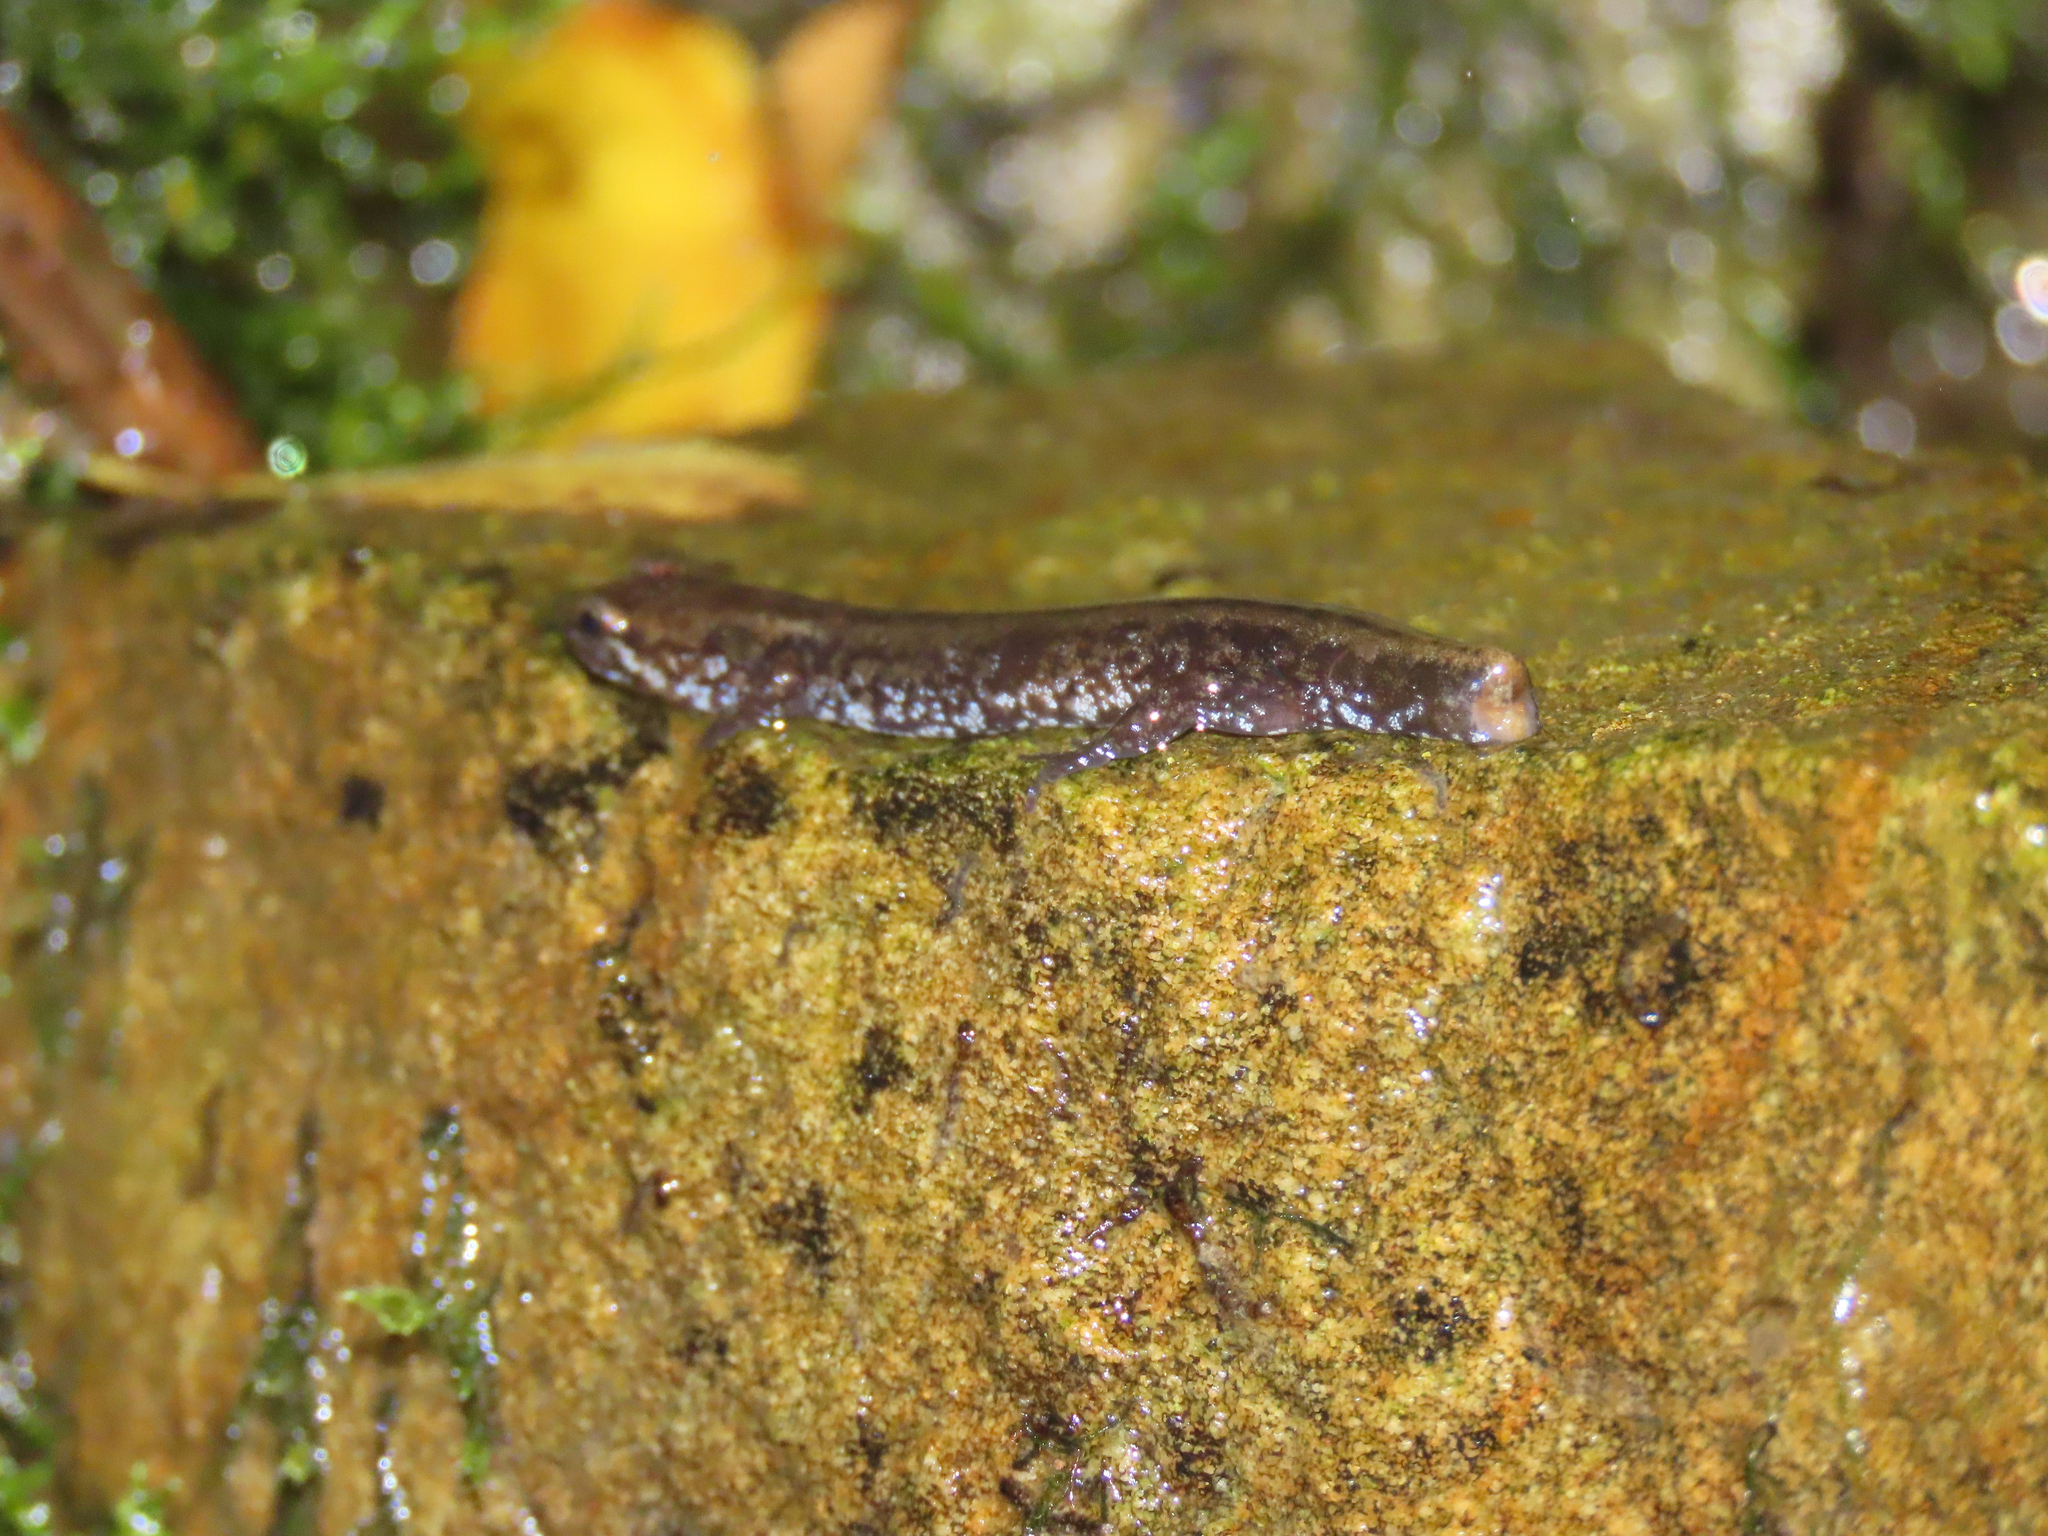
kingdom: Animalia
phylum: Chordata
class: Amphibia
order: Caudata
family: Plethodontidae
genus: Desmognathus
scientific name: Desmognathus ochrophaeus
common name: Allegheny mountain dusky salamander
